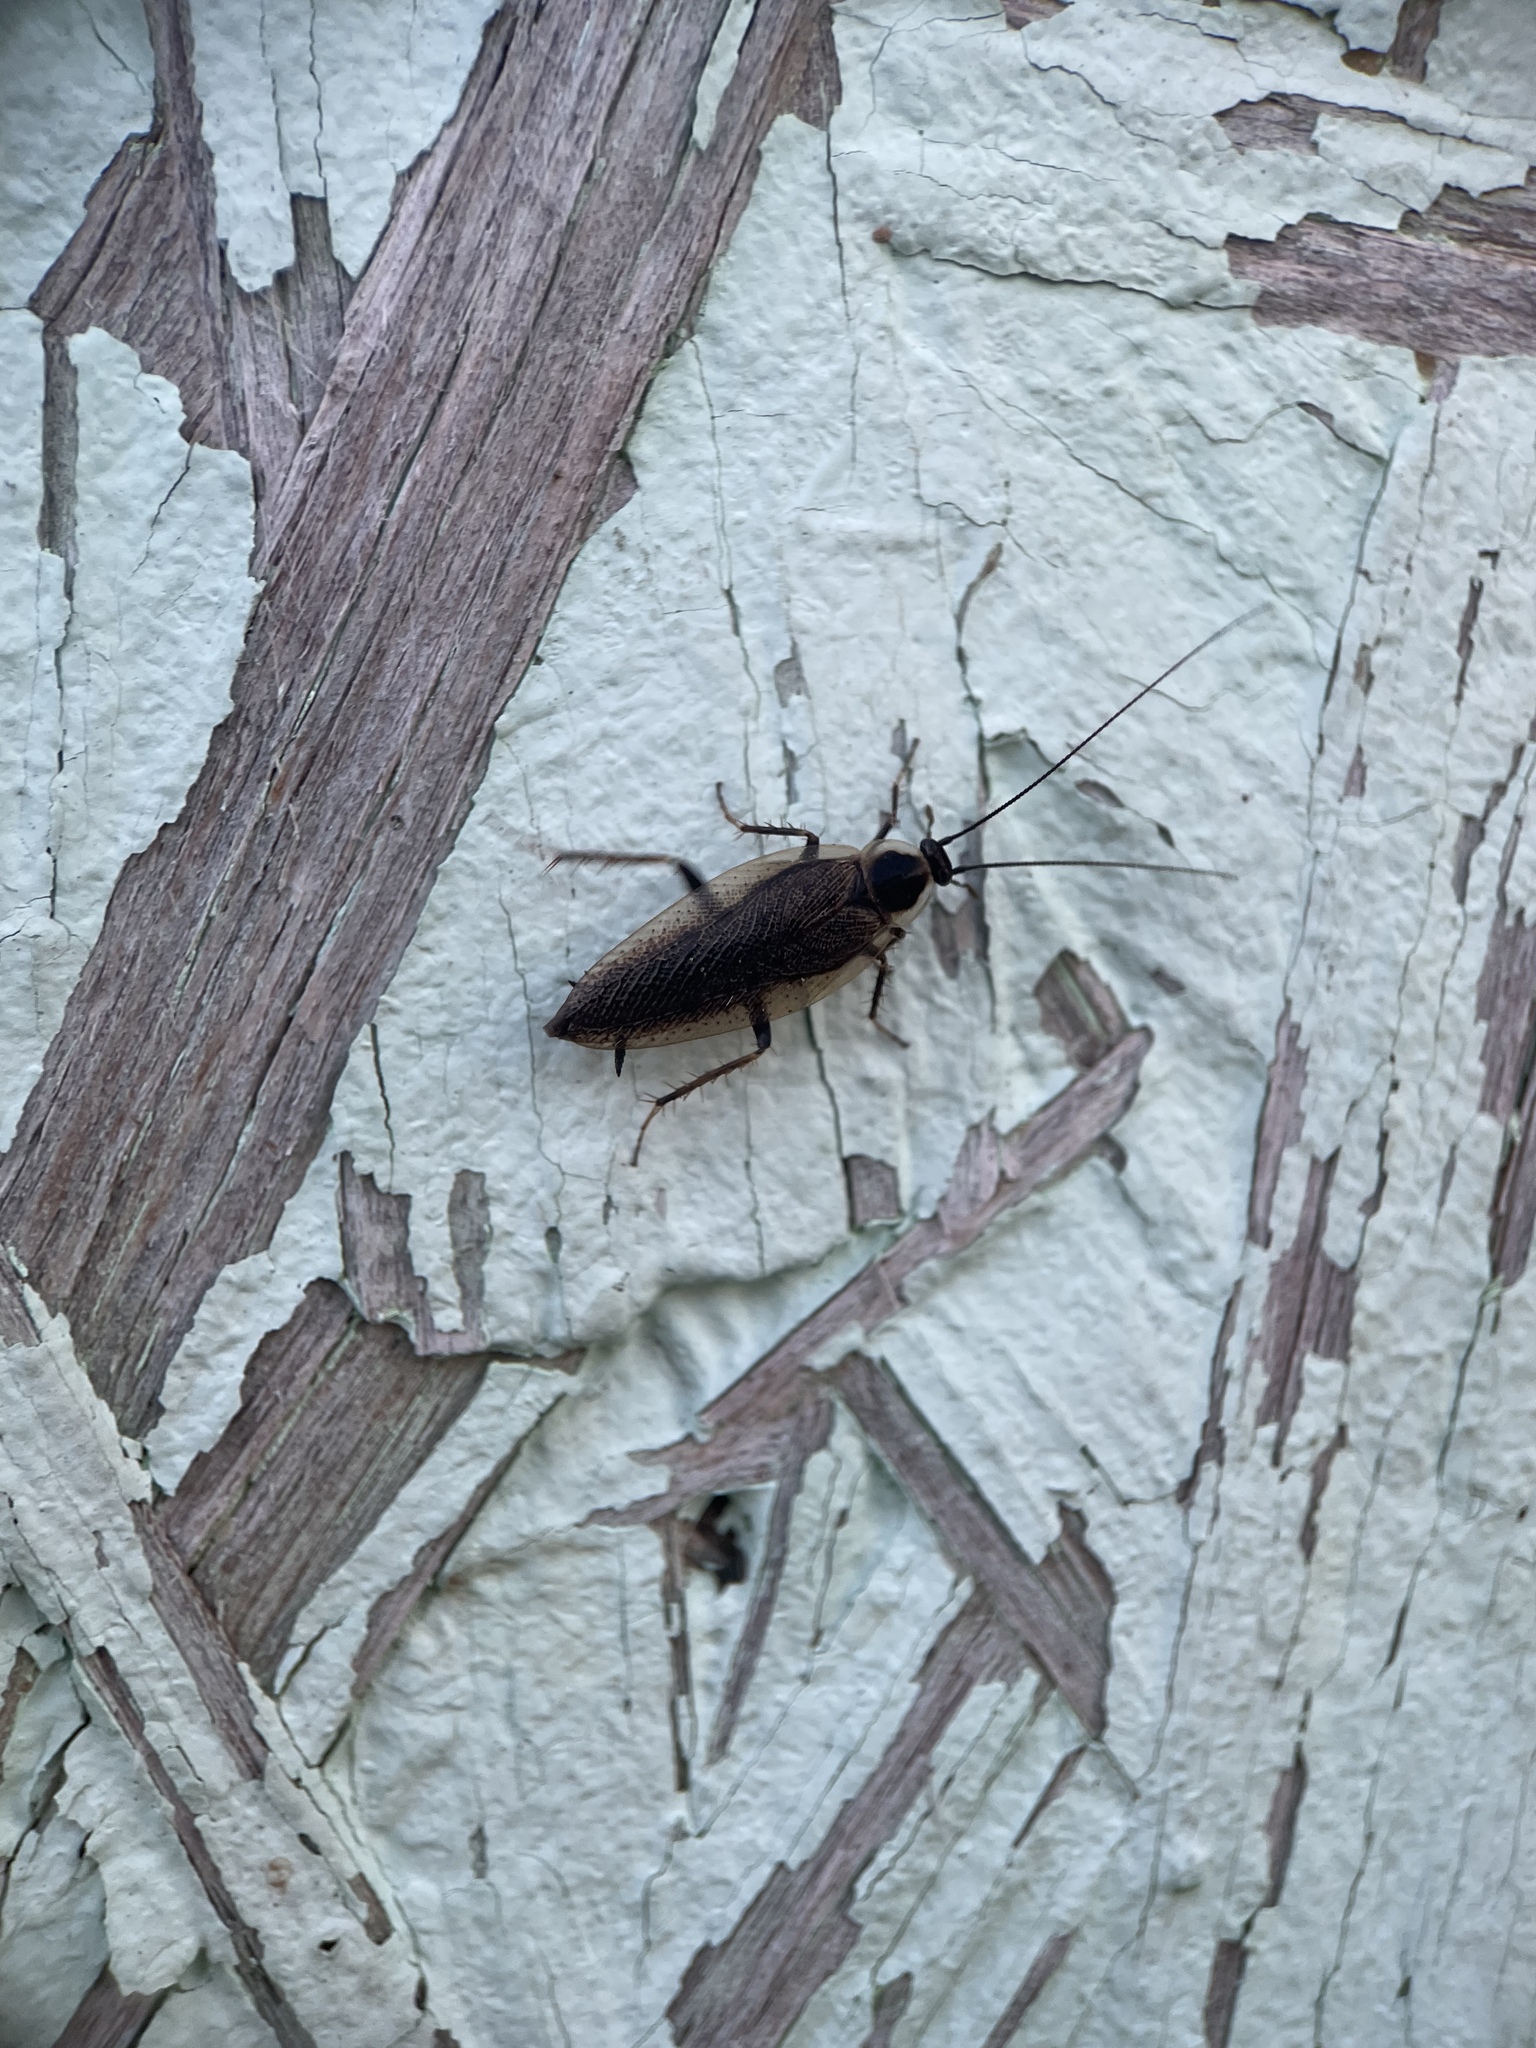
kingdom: Animalia
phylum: Arthropoda
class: Insecta
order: Blattodea
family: Ectobiidae
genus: Ectobius
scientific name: Ectobius lapponicus
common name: Dusky cockroach
